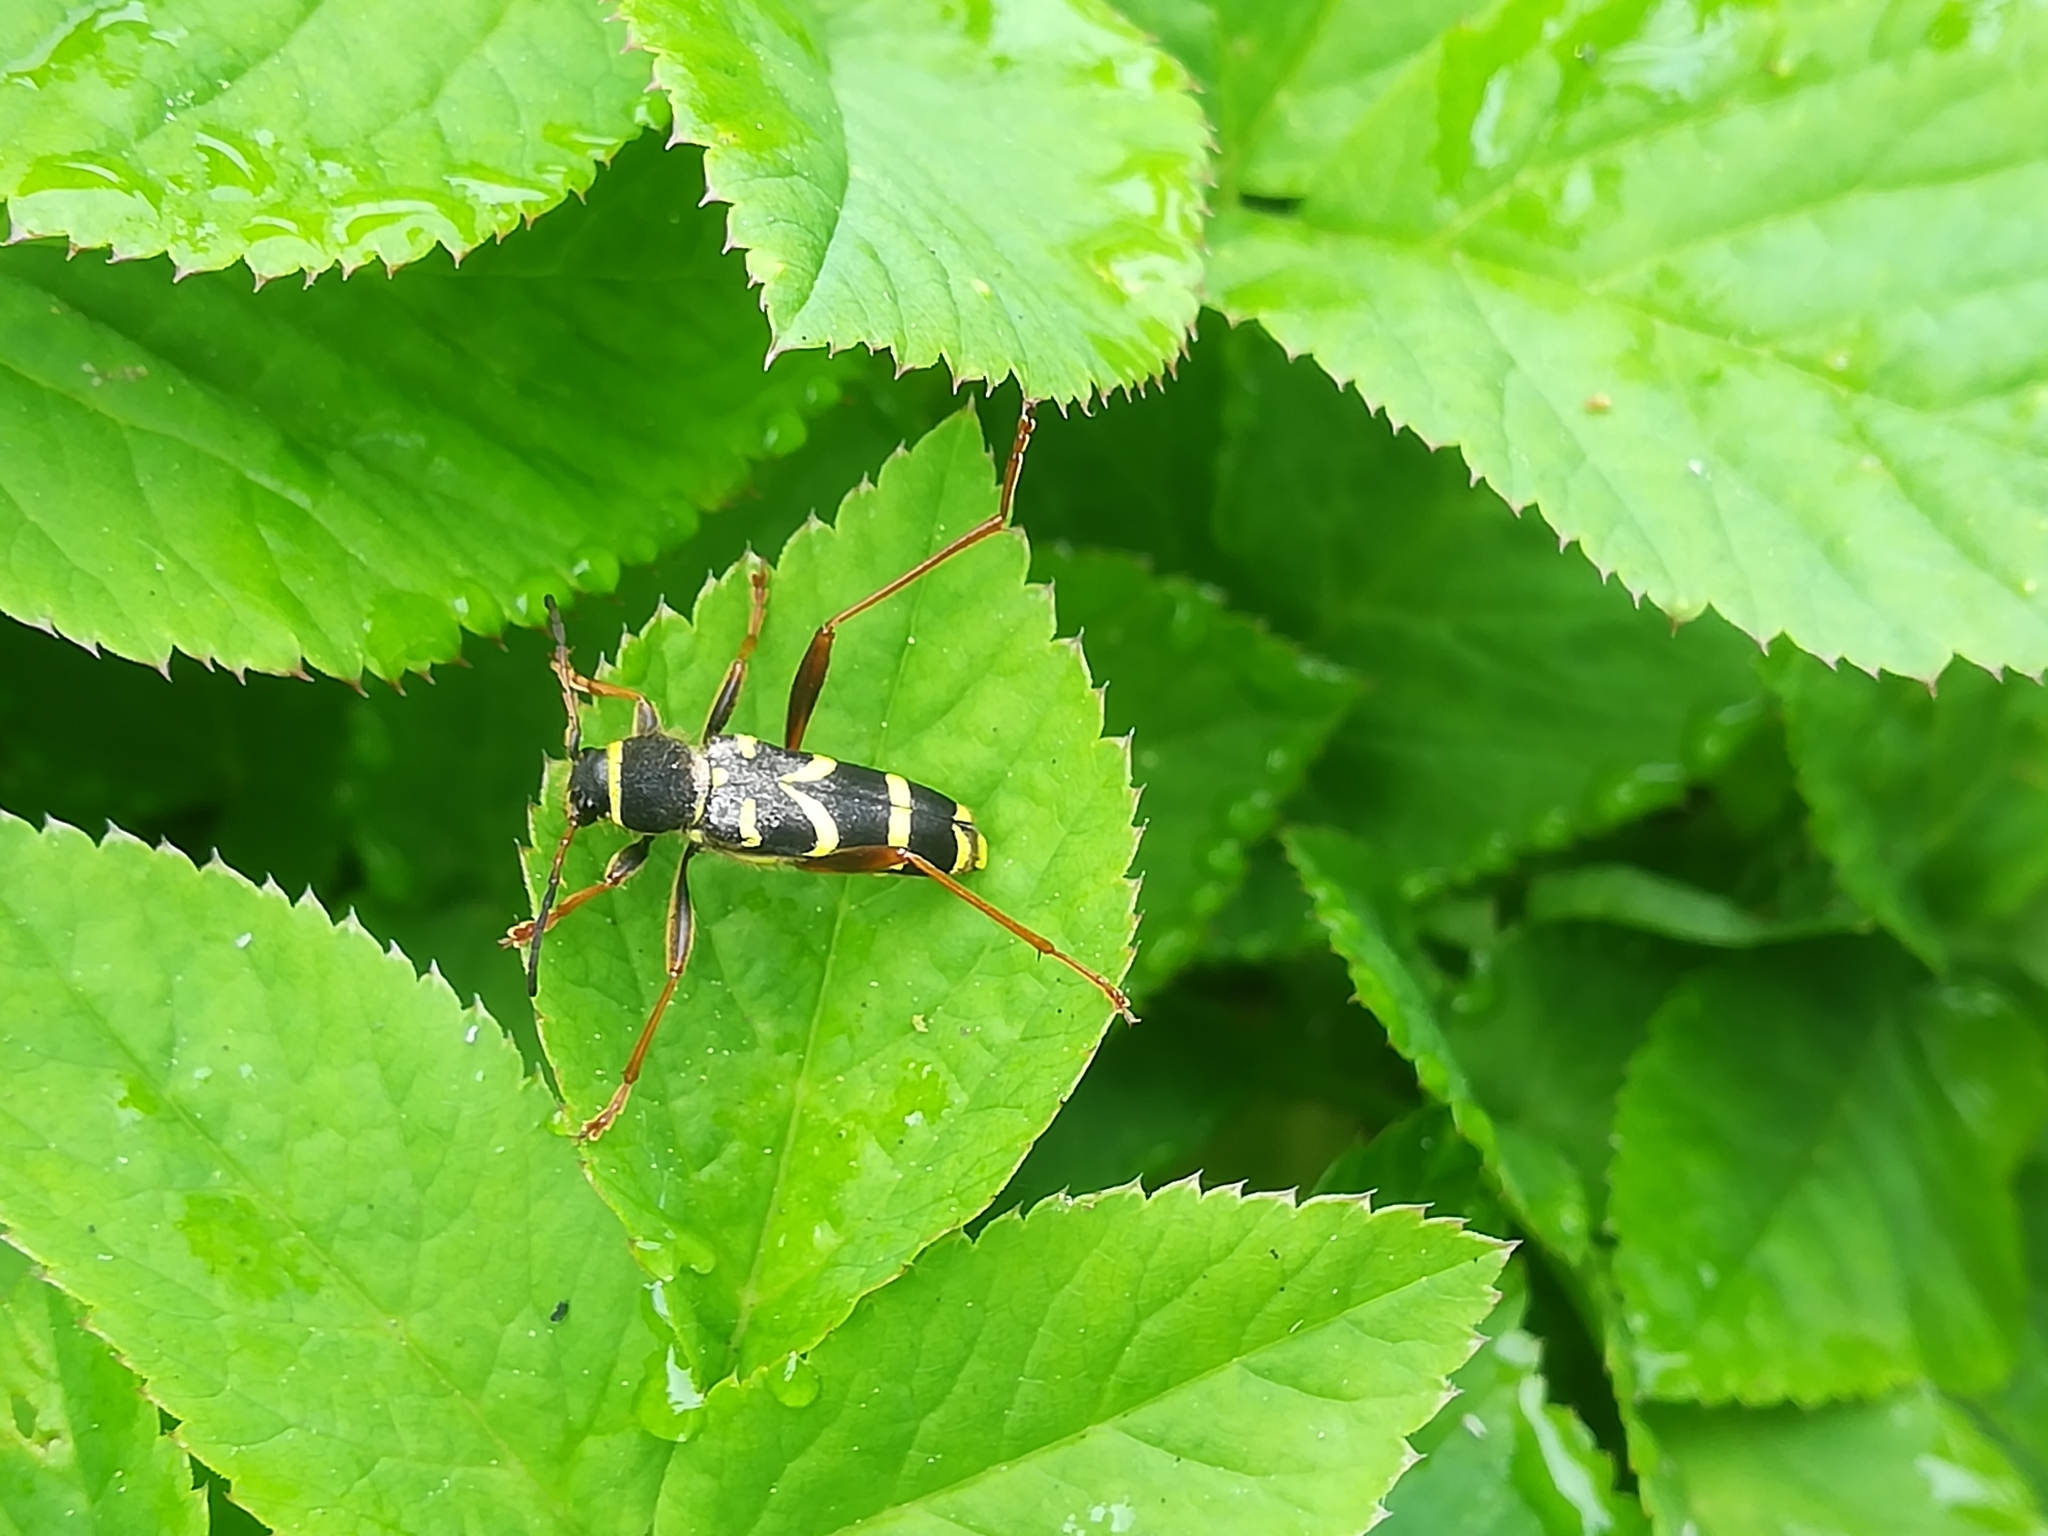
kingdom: Animalia
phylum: Arthropoda
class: Insecta
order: Coleoptera
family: Cerambycidae
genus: Clytus
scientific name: Clytus arietis
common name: Wasp beetle
